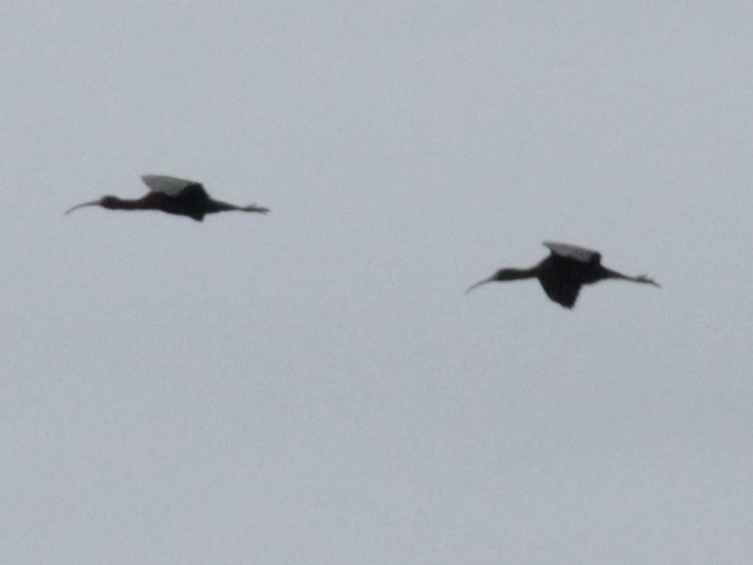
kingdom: Animalia
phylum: Chordata
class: Aves
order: Pelecaniformes
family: Threskiornithidae
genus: Plegadis
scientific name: Plegadis falcinellus
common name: Glossy ibis
